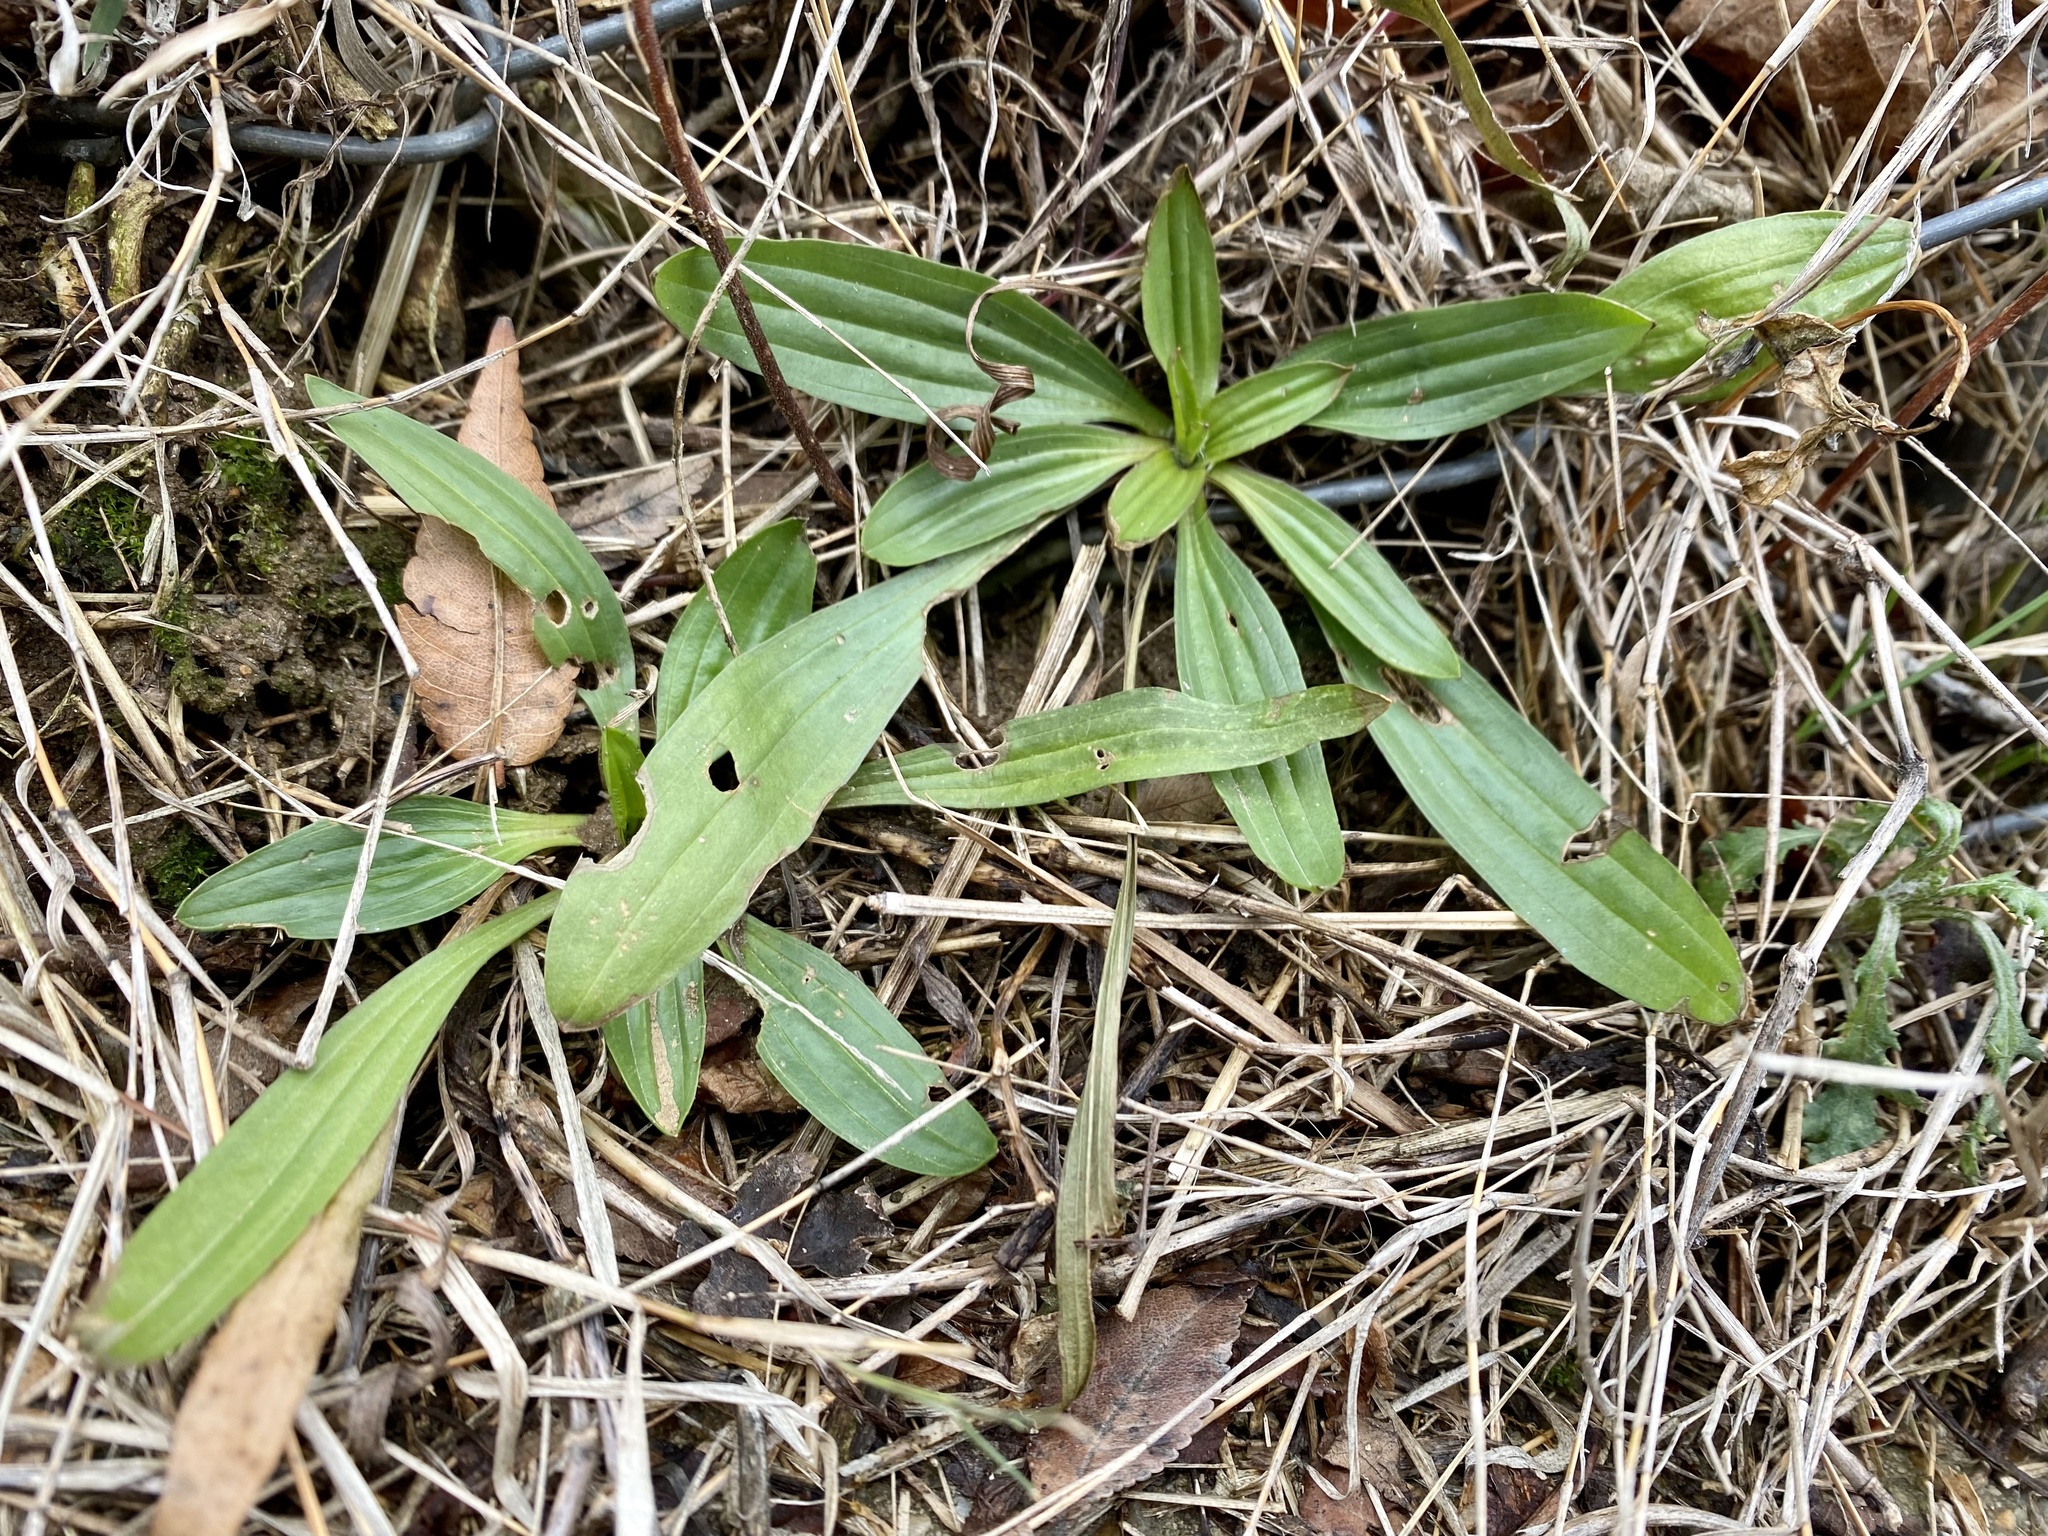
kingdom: Plantae
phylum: Tracheophyta
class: Magnoliopsida
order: Lamiales
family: Plantaginaceae
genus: Plantago
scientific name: Plantago lanceolata
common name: Ribwort plantain
